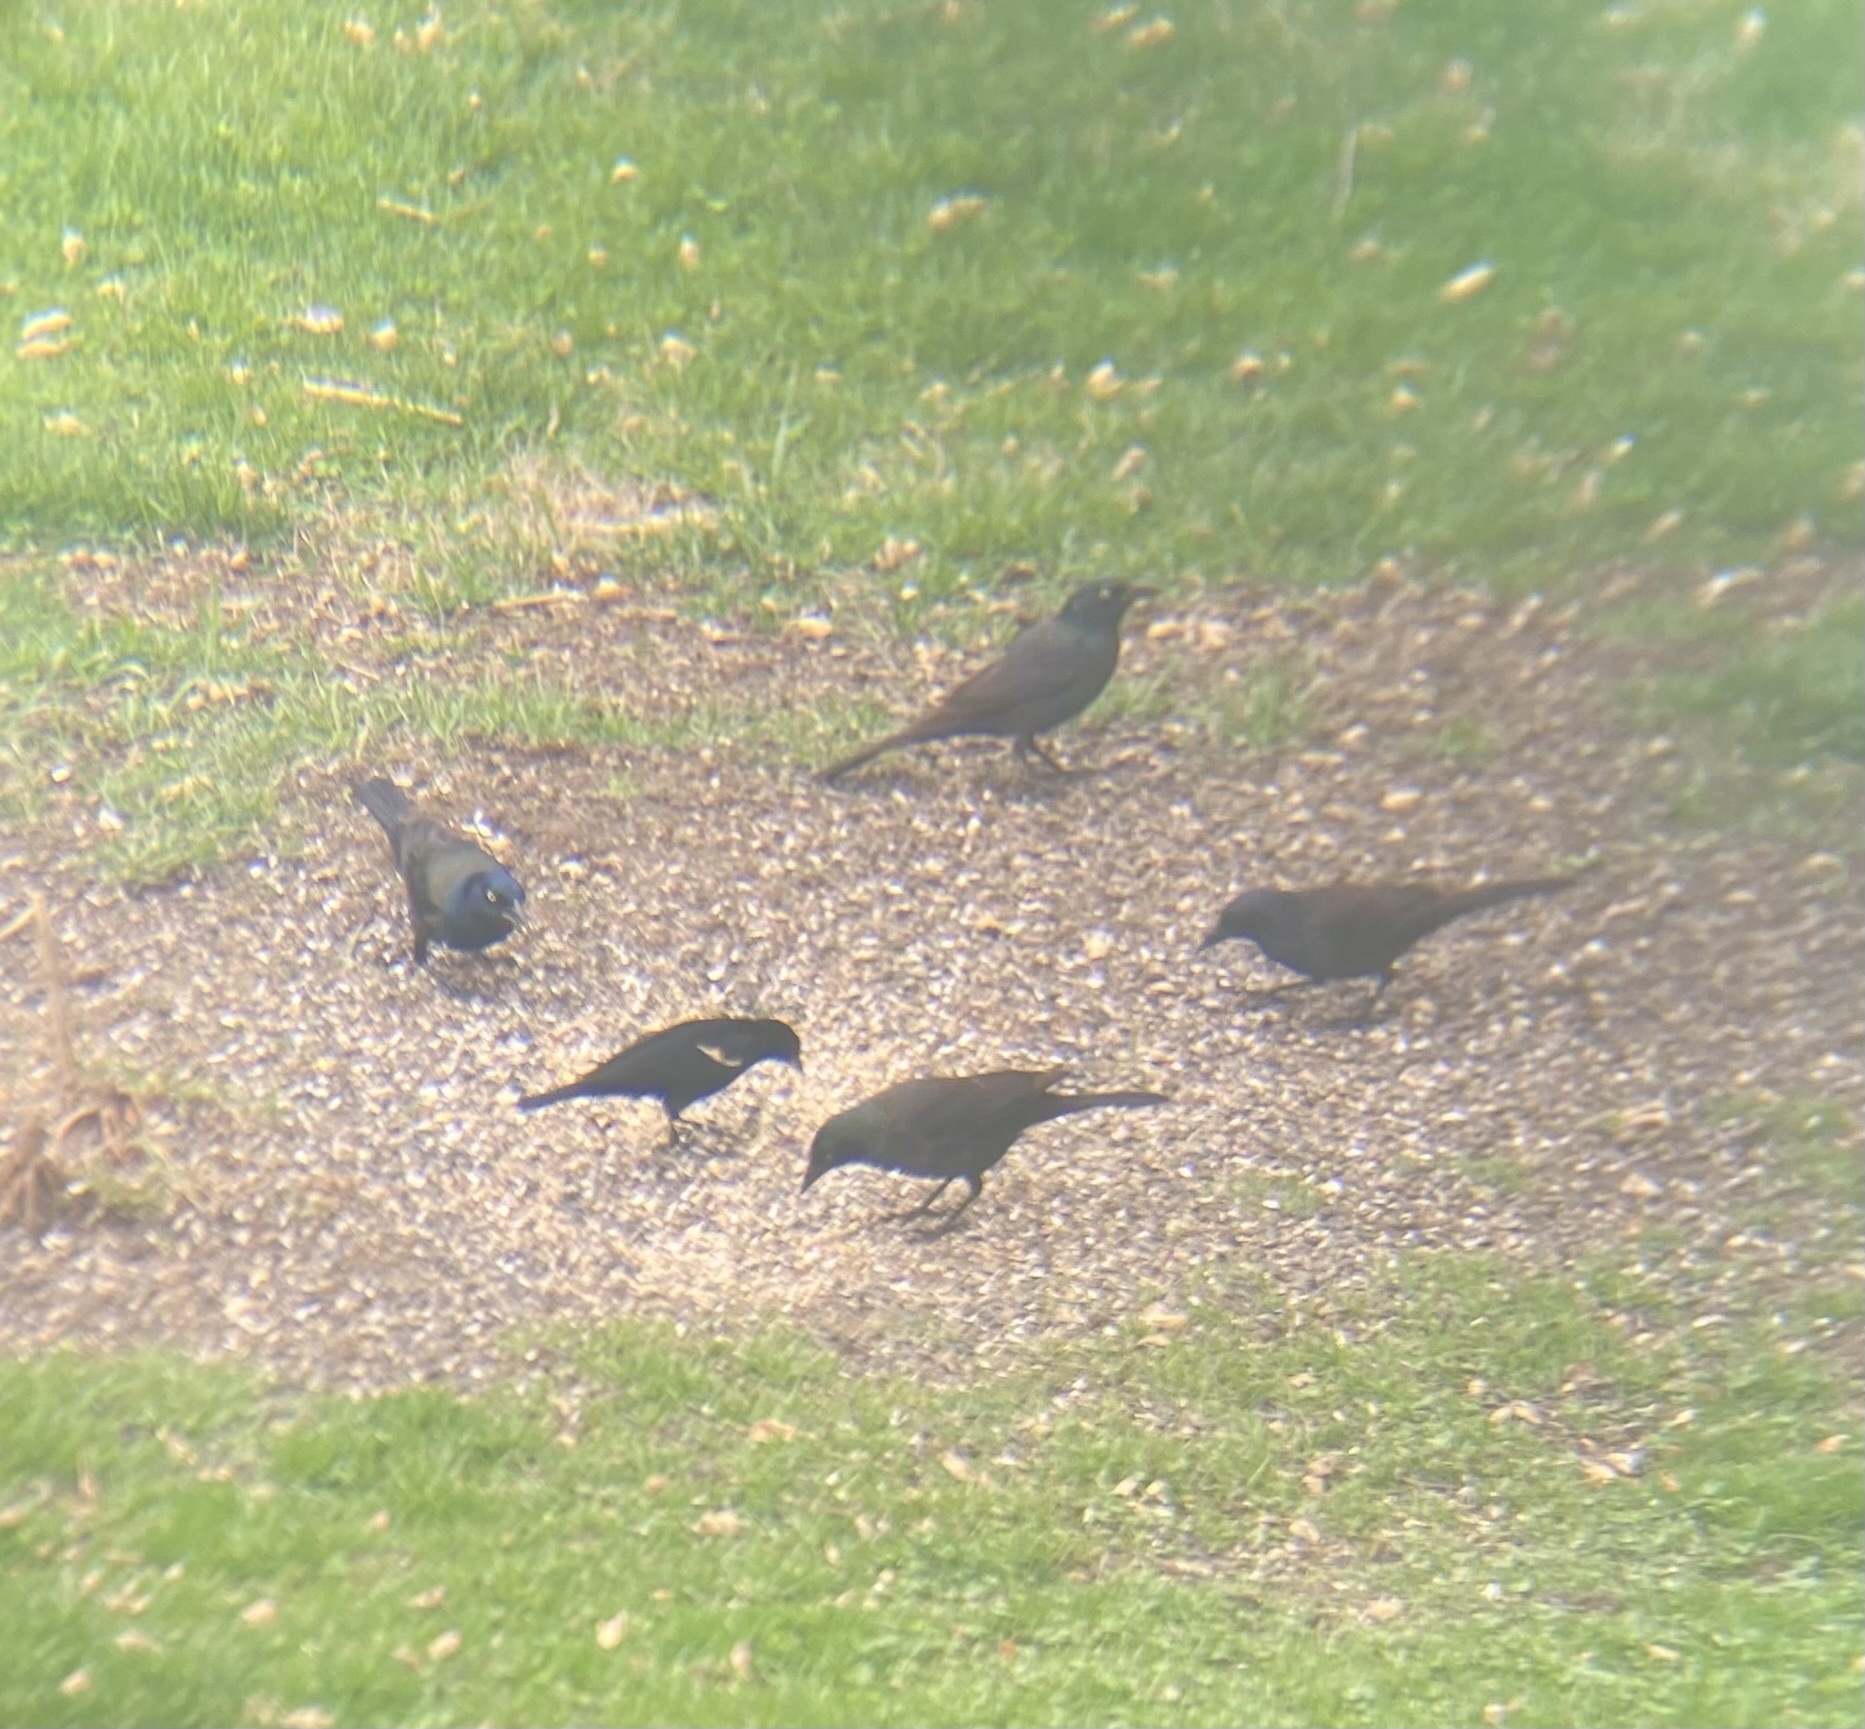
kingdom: Animalia
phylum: Chordata
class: Aves
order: Passeriformes
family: Icteridae
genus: Quiscalus
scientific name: Quiscalus quiscula
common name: Common grackle
